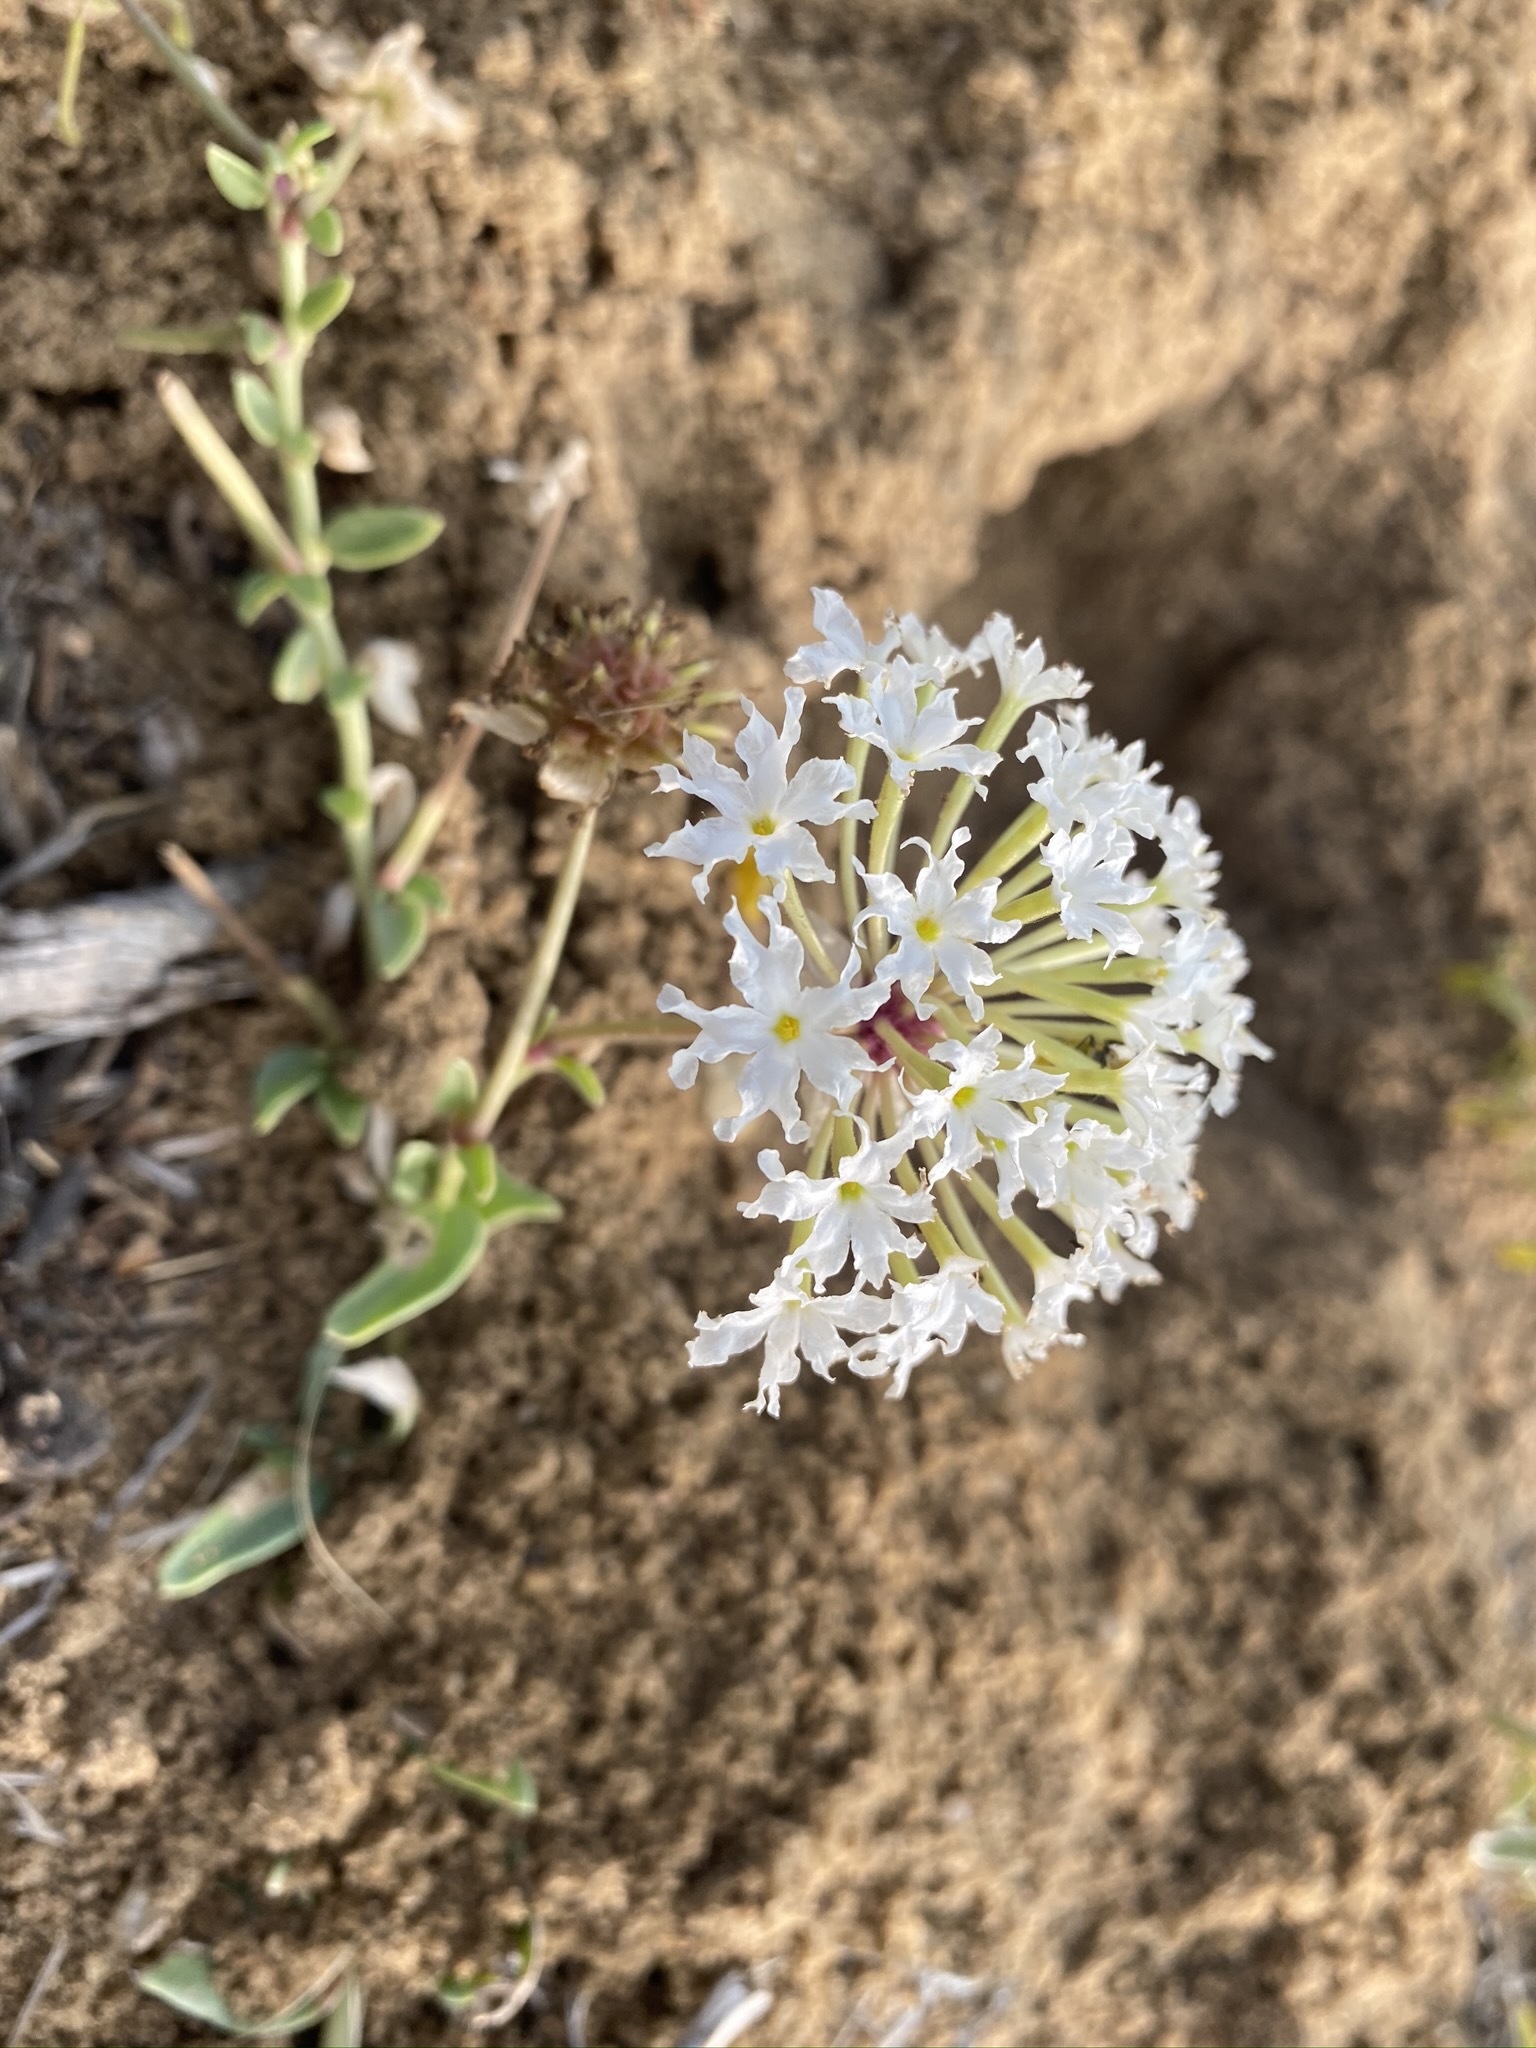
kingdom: Plantae
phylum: Tracheophyta
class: Magnoliopsida
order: Caryophyllales
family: Nyctaginaceae
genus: Abronia
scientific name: Abronia fragrans
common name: Fragrant sand-verbena
